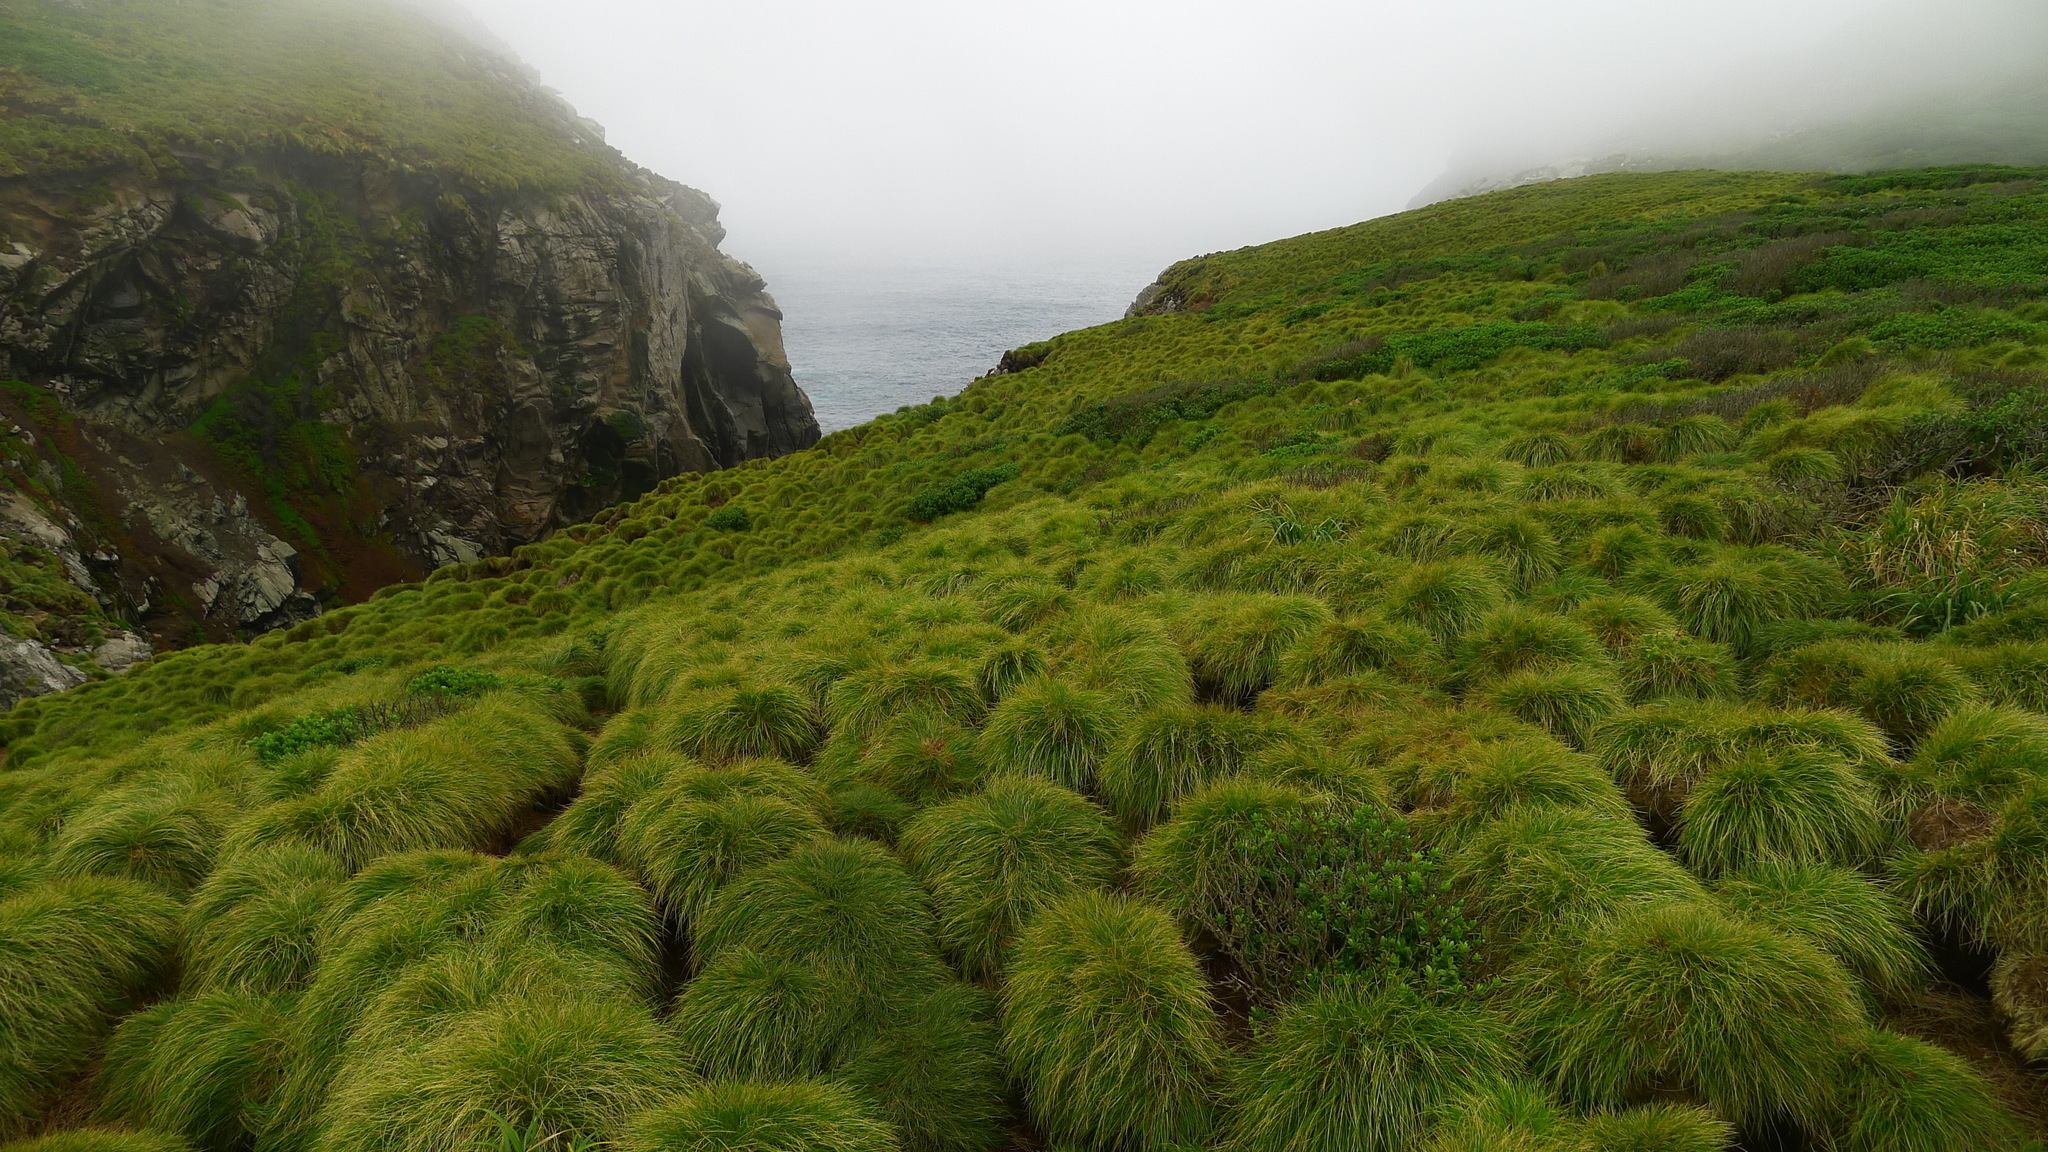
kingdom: Plantae
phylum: Tracheophyta
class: Liliopsida
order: Poales
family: Poaceae
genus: Poa
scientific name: Poa astonii
